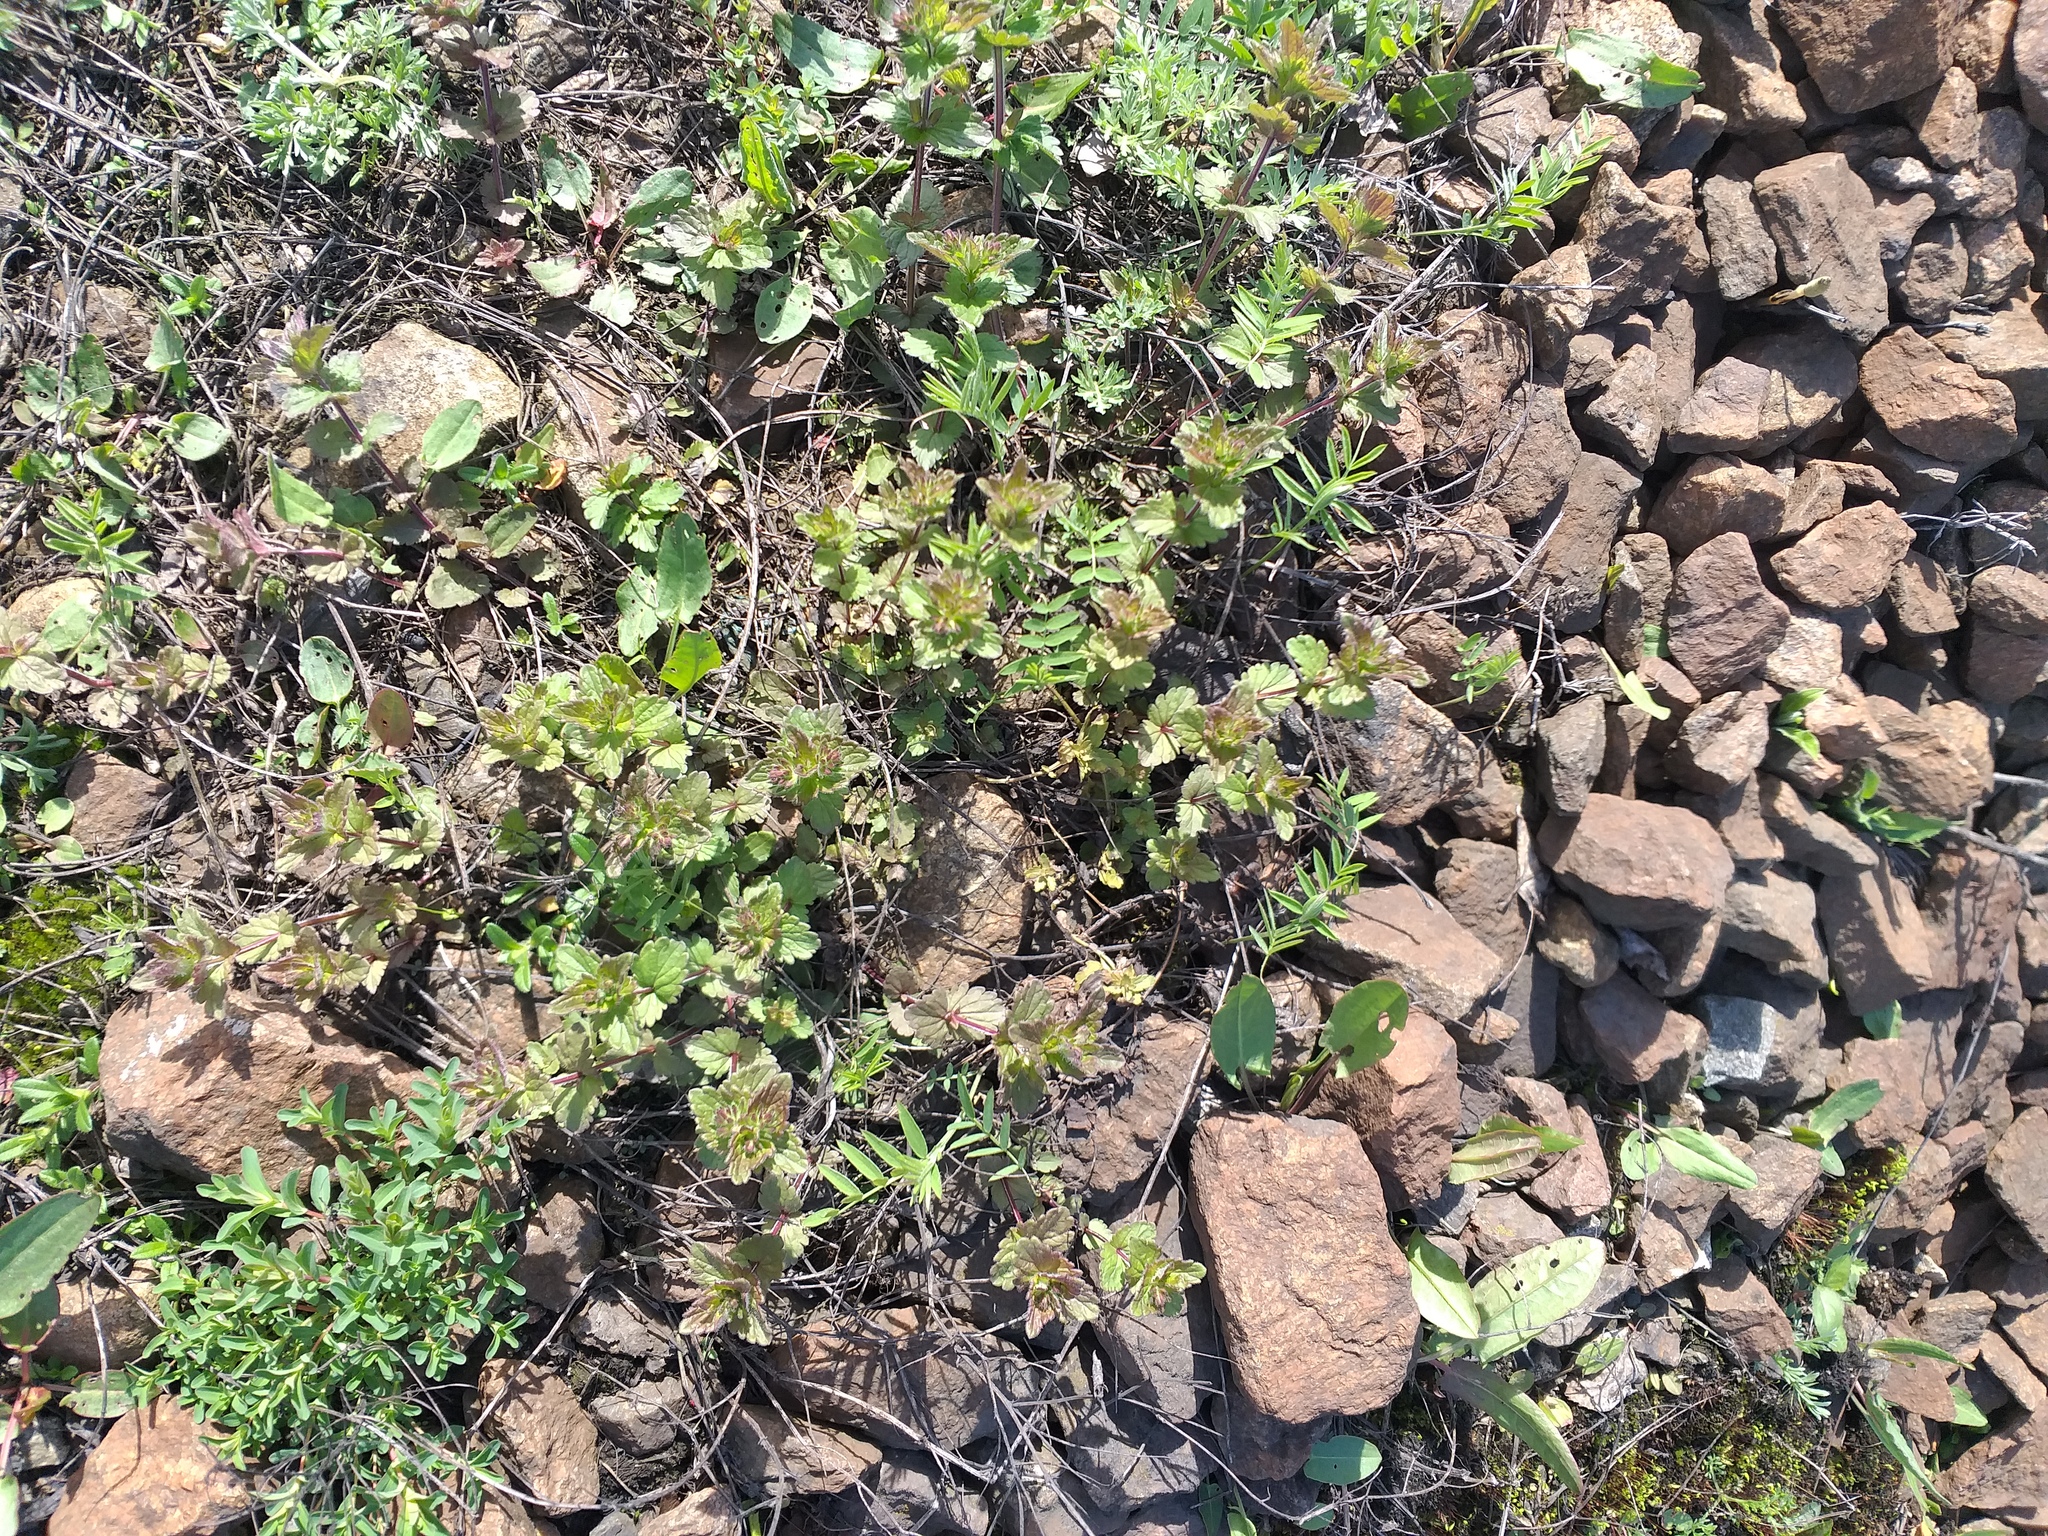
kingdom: Plantae
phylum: Tracheophyta
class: Magnoliopsida
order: Lamiales
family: Plantaginaceae
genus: Veronica
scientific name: Veronica chamaedrys
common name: Germander speedwell
